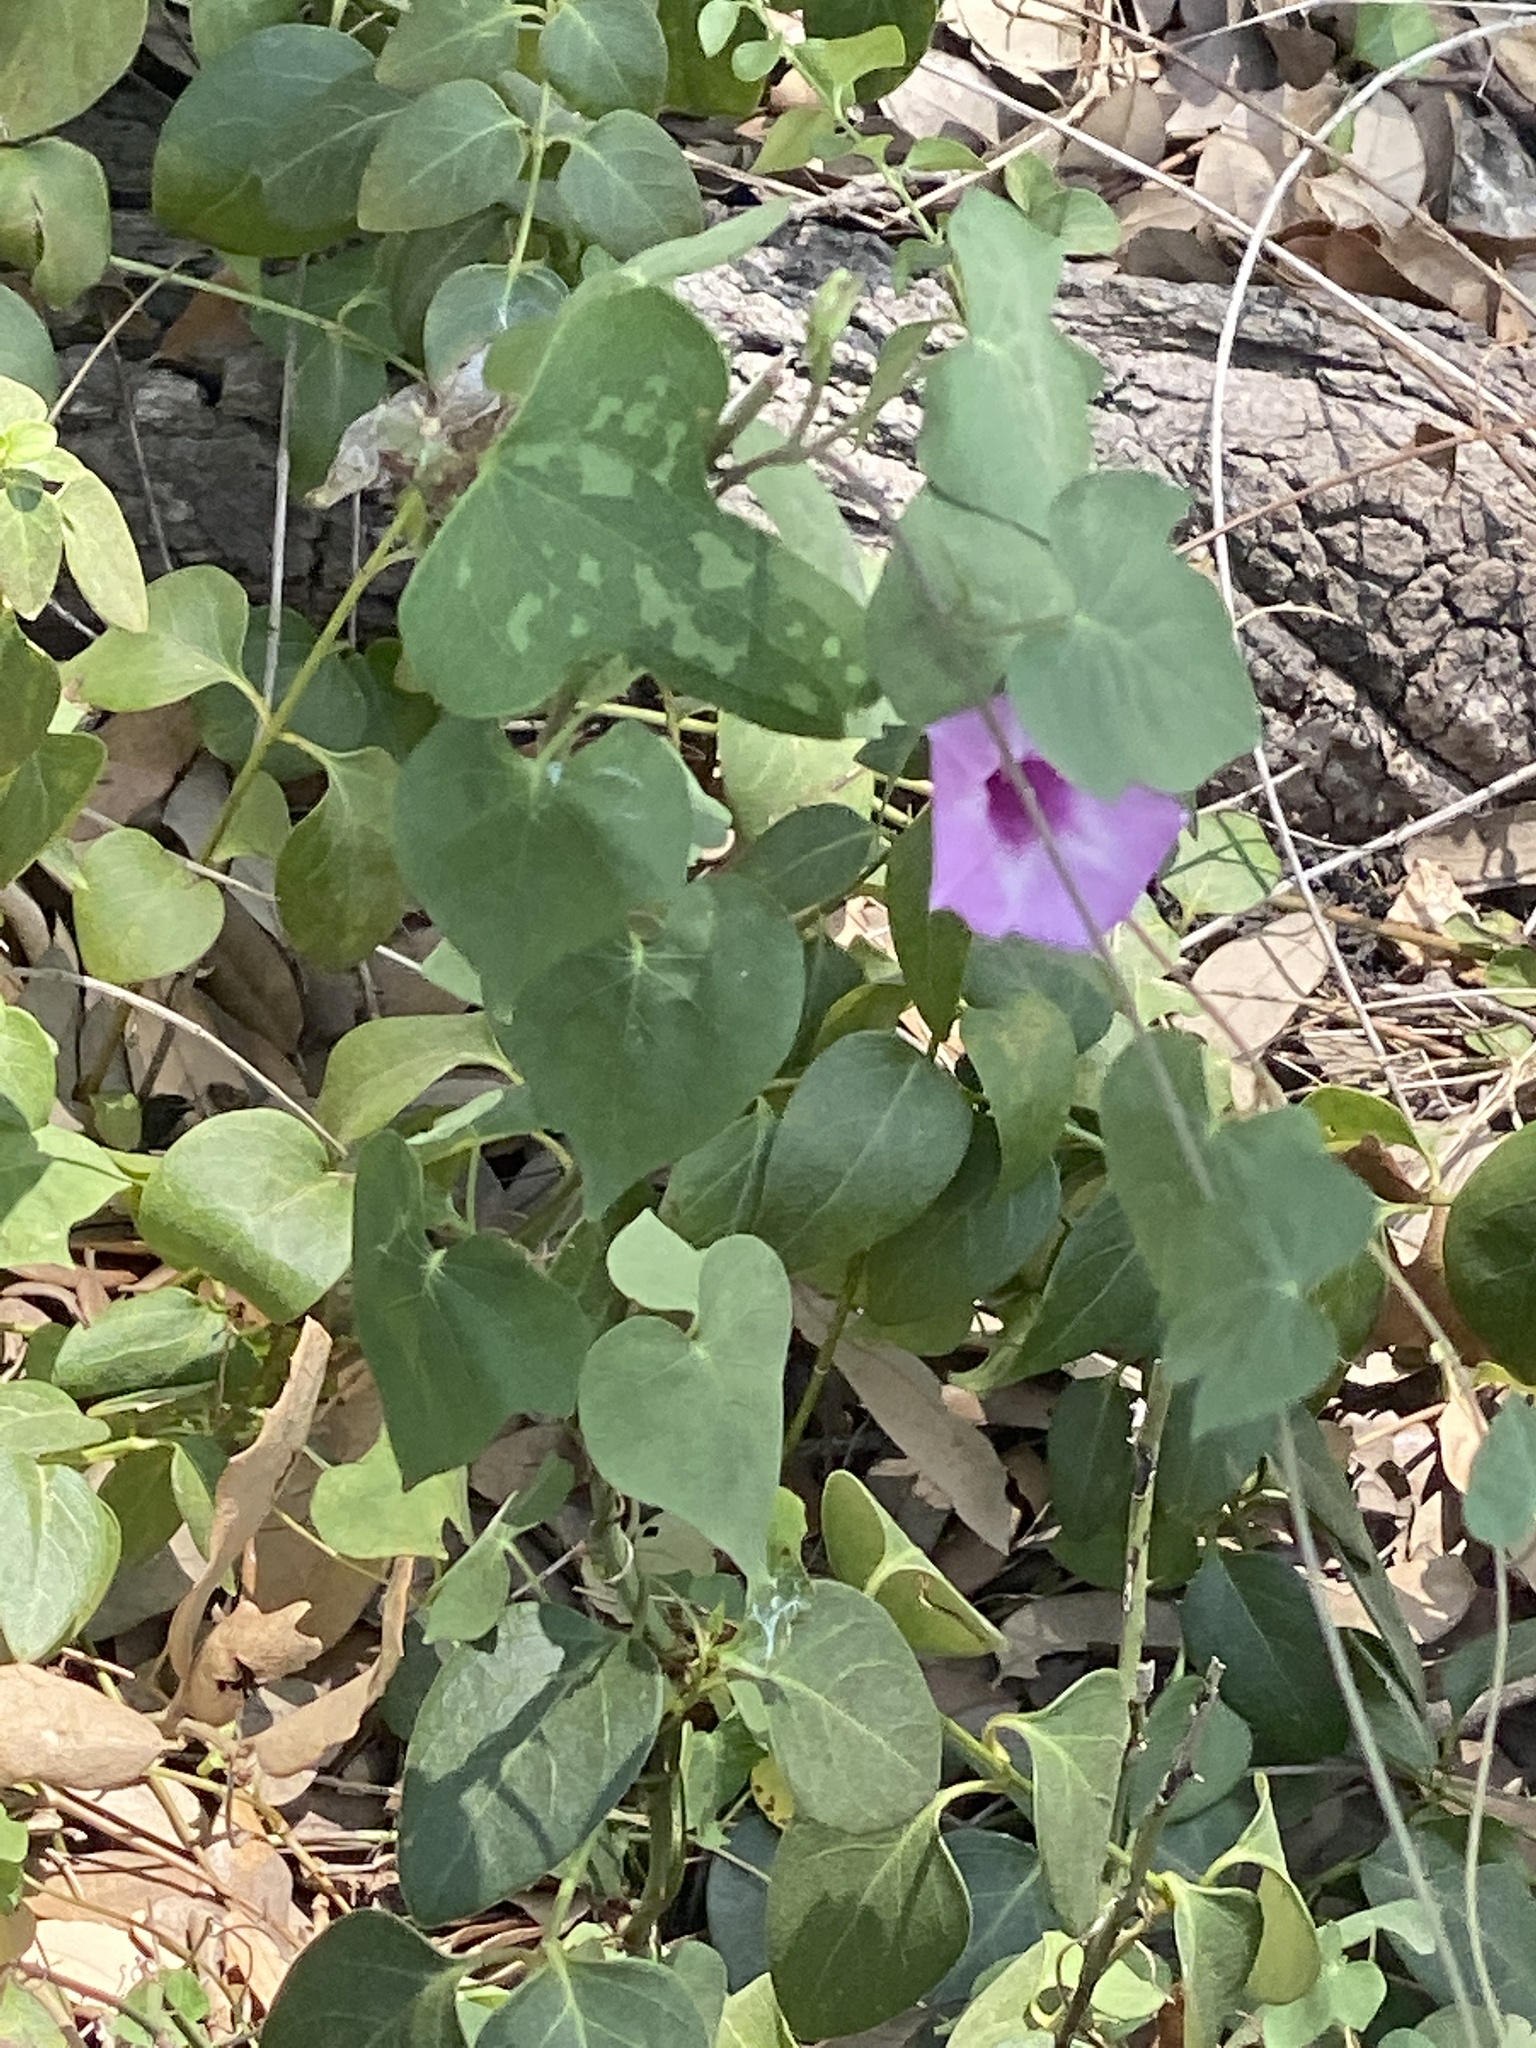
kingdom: Plantae
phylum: Tracheophyta
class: Magnoliopsida
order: Solanales
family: Convolvulaceae
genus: Ipomoea
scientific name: Ipomoea cordatotriloba
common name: Cotton morning glory
